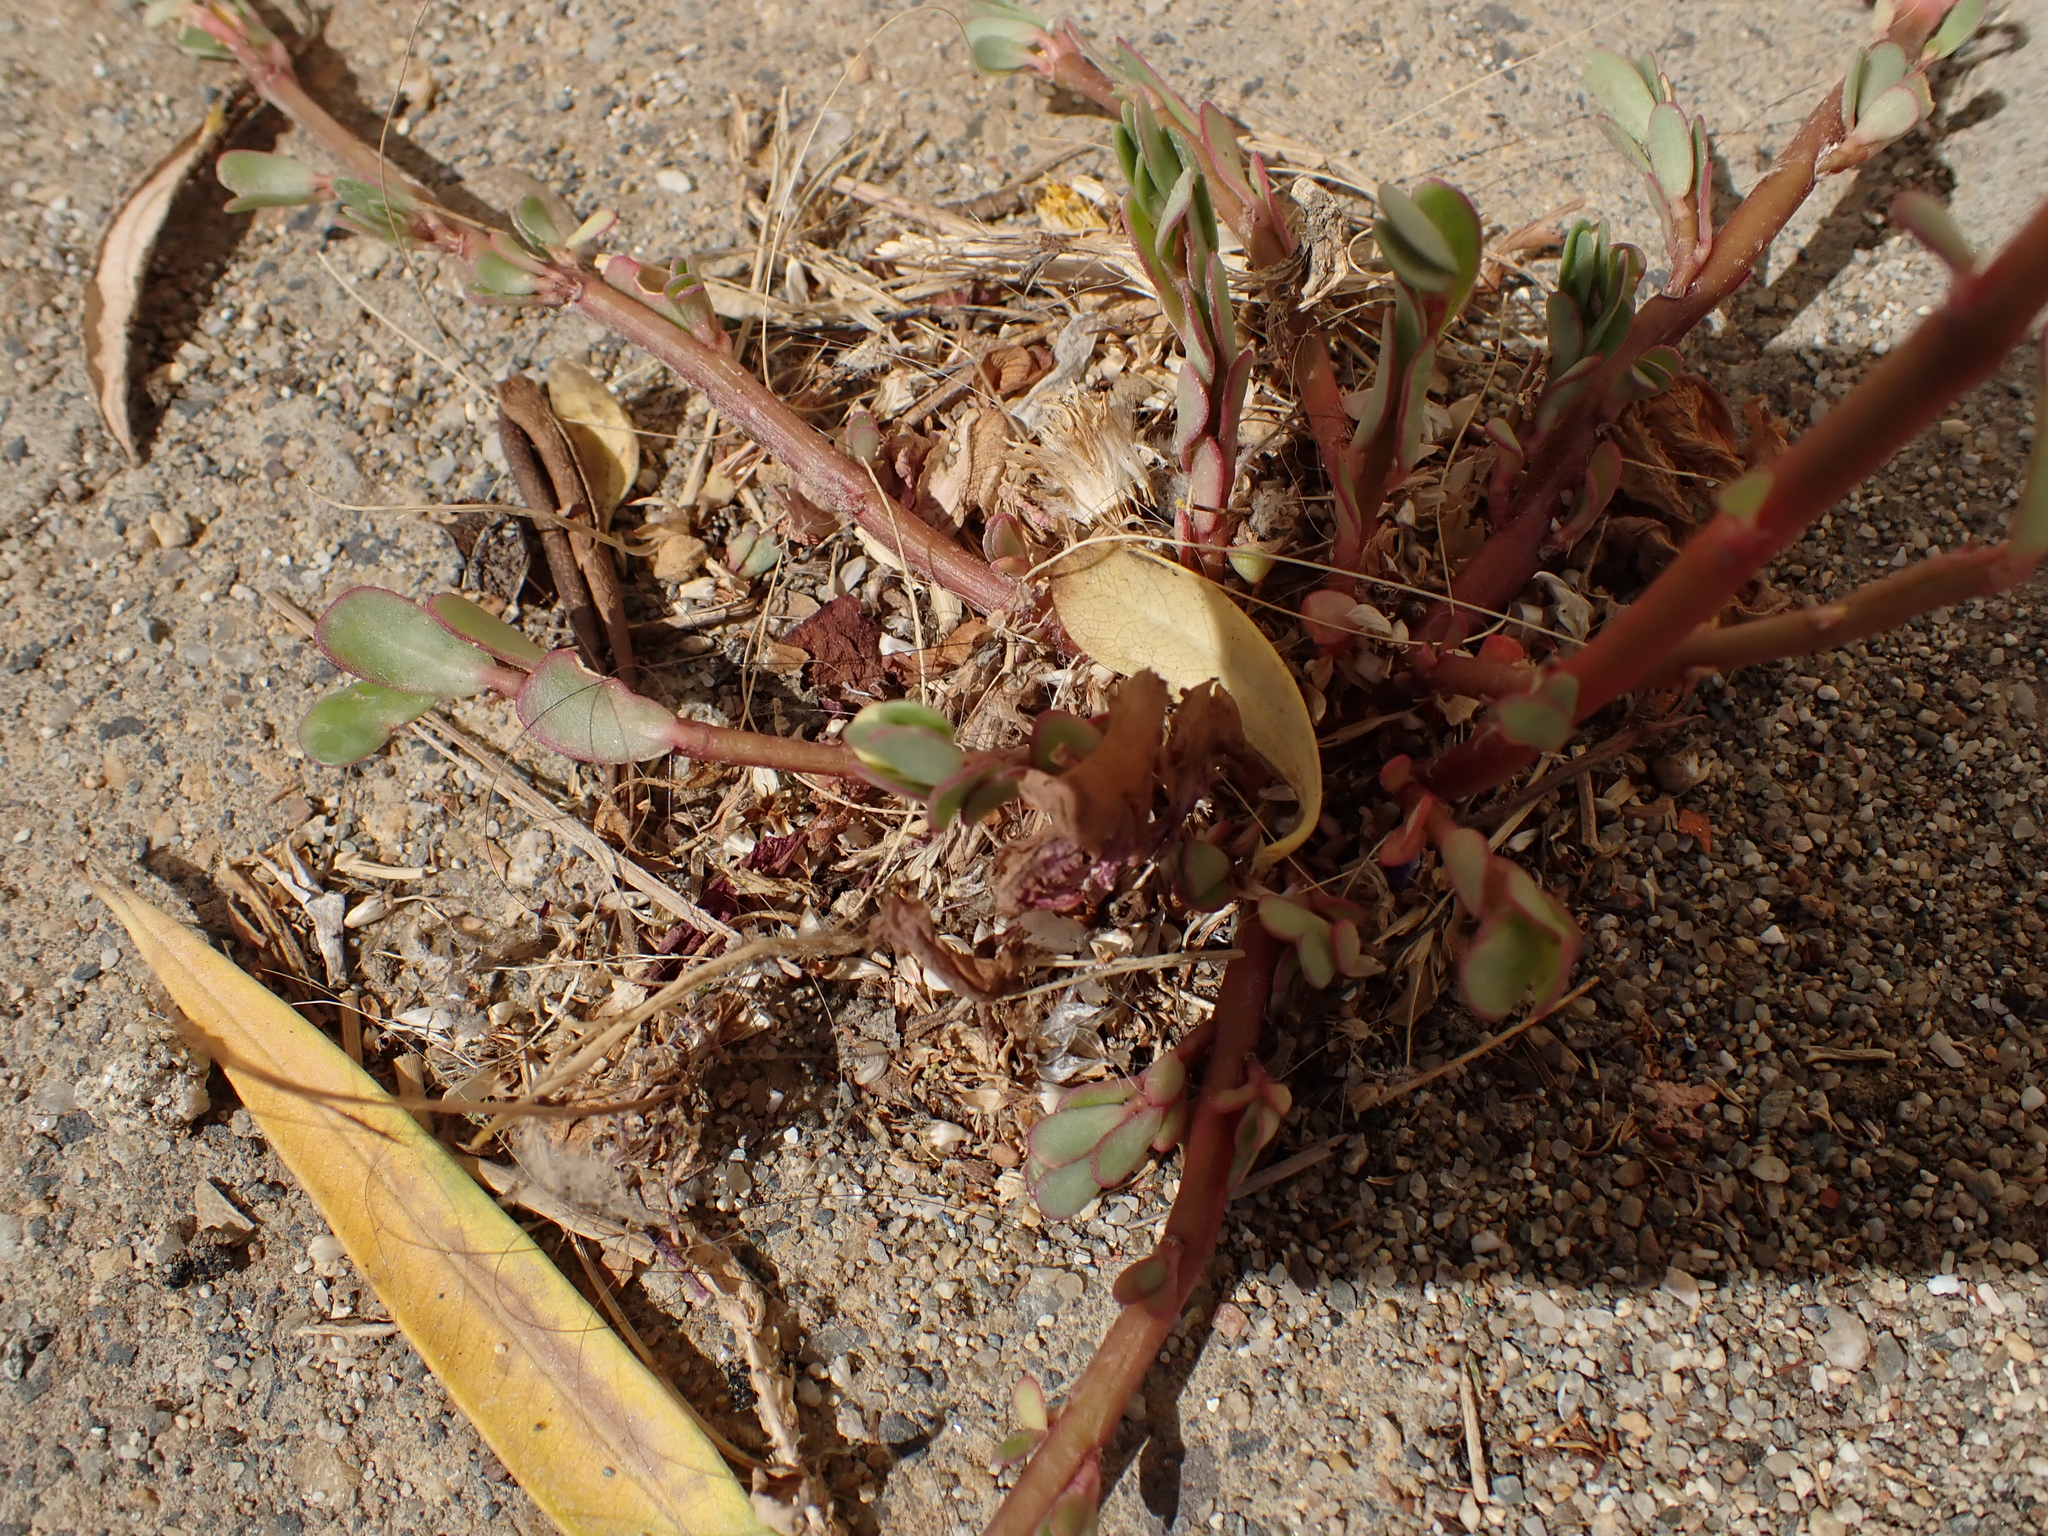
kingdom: Plantae
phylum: Tracheophyta
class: Magnoliopsida
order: Caryophyllales
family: Portulacaceae
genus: Portulaca
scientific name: Portulaca oleracea
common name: Common purslane
